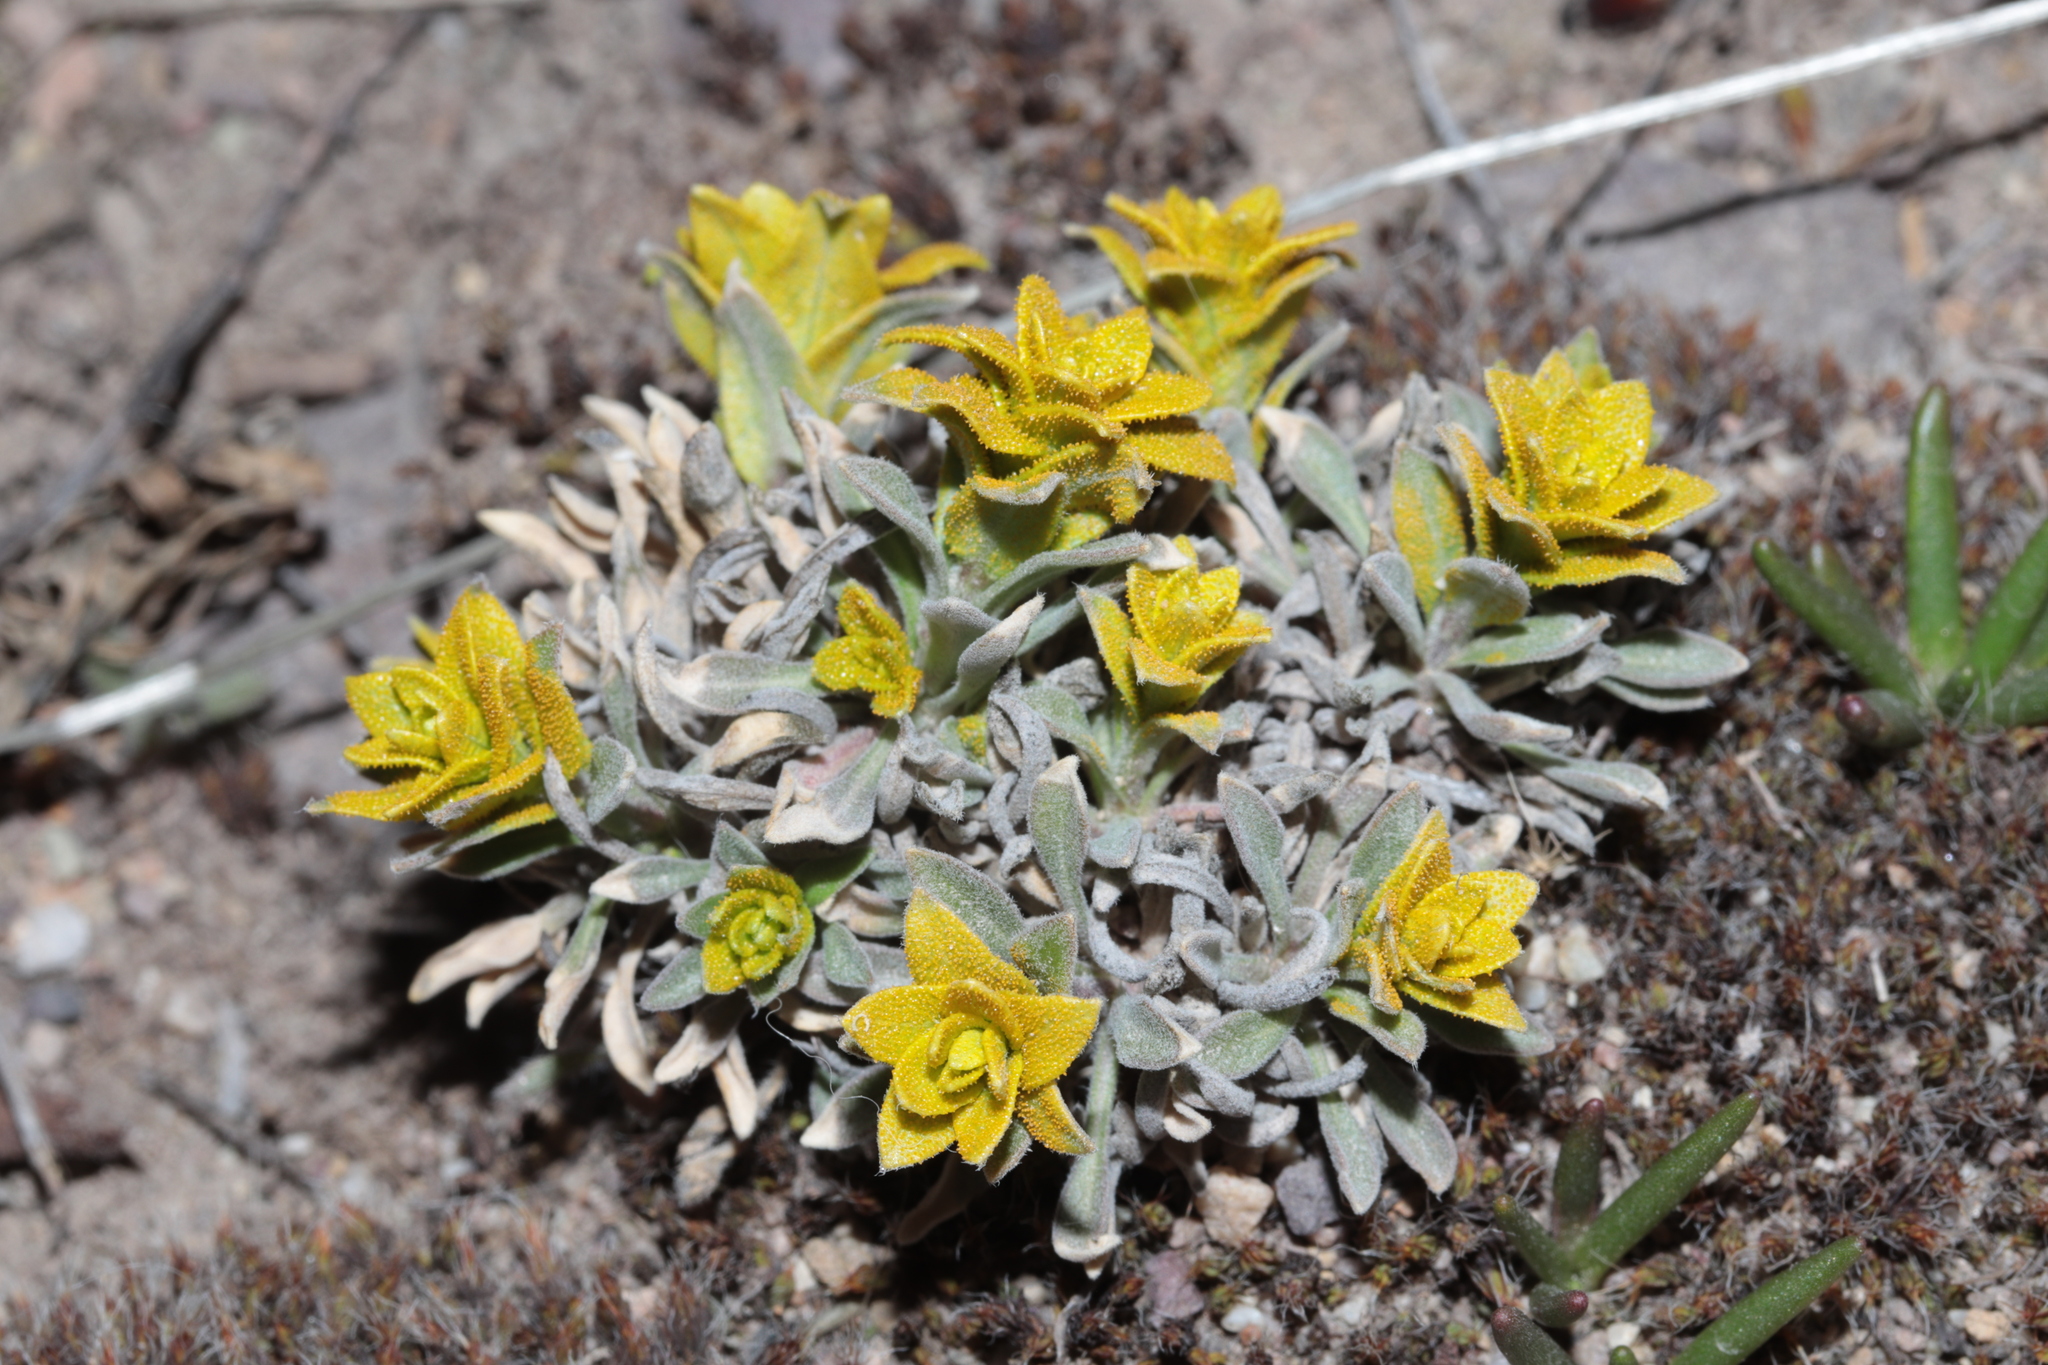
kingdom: Fungi
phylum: Basidiomycota
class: Pucciniomycetes
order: Pucciniales
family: Pucciniaceae
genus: Puccinia
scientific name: Puccinia monoica
